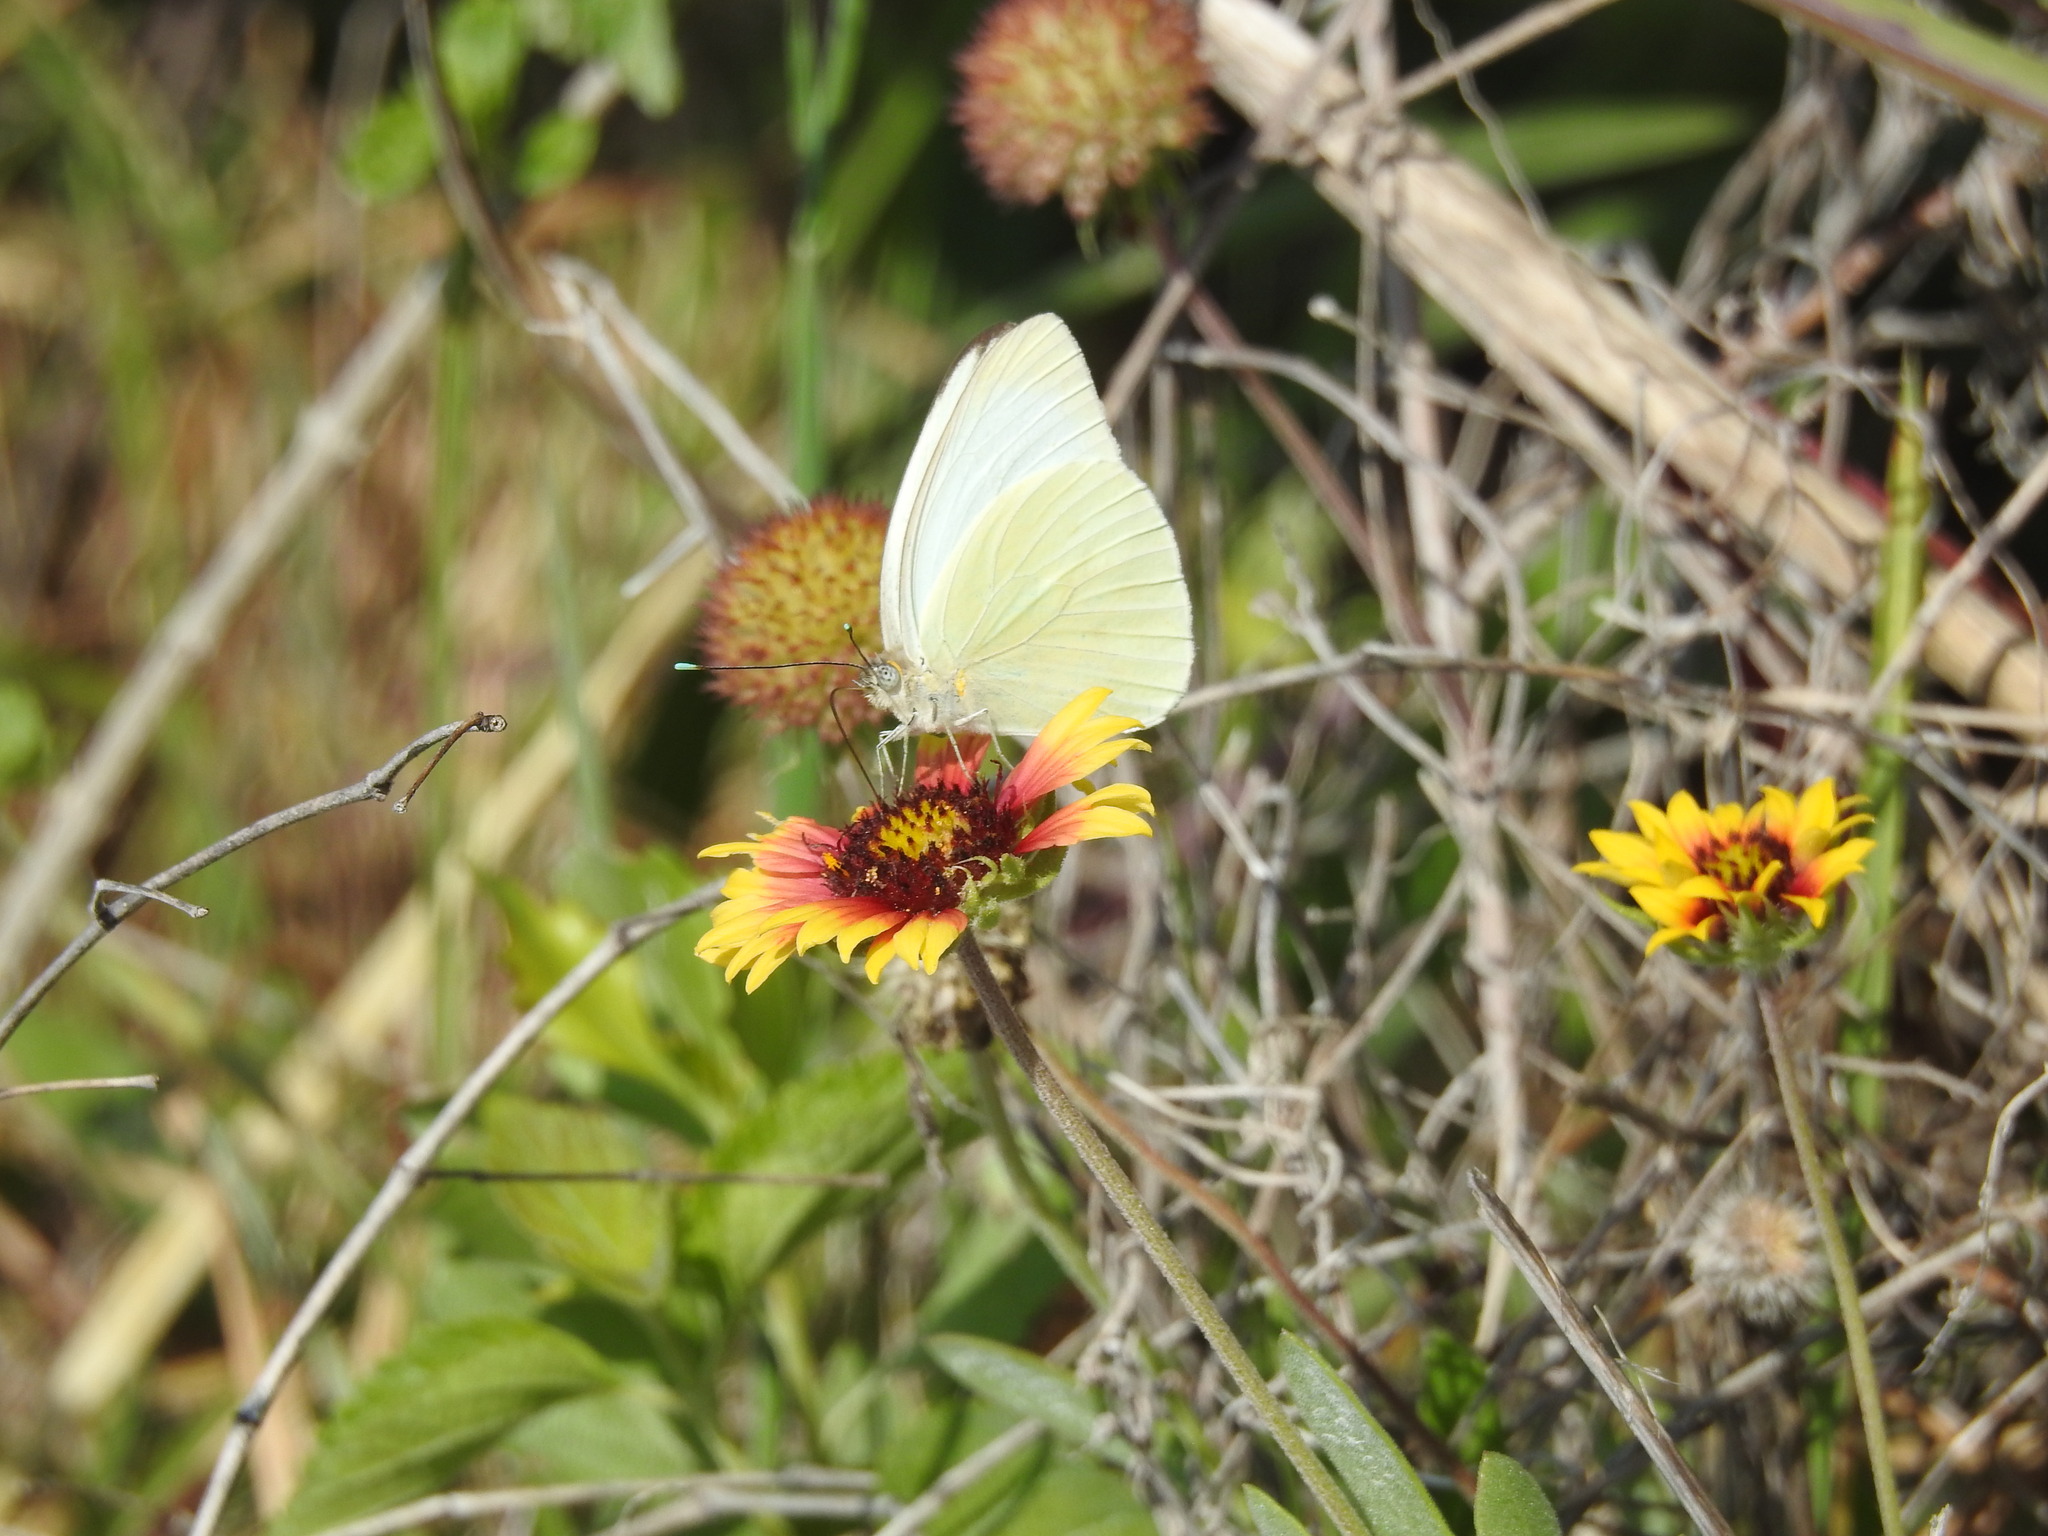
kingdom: Animalia
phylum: Arthropoda
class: Insecta
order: Lepidoptera
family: Pieridae
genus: Ascia
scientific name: Ascia monuste
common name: Great southern white
